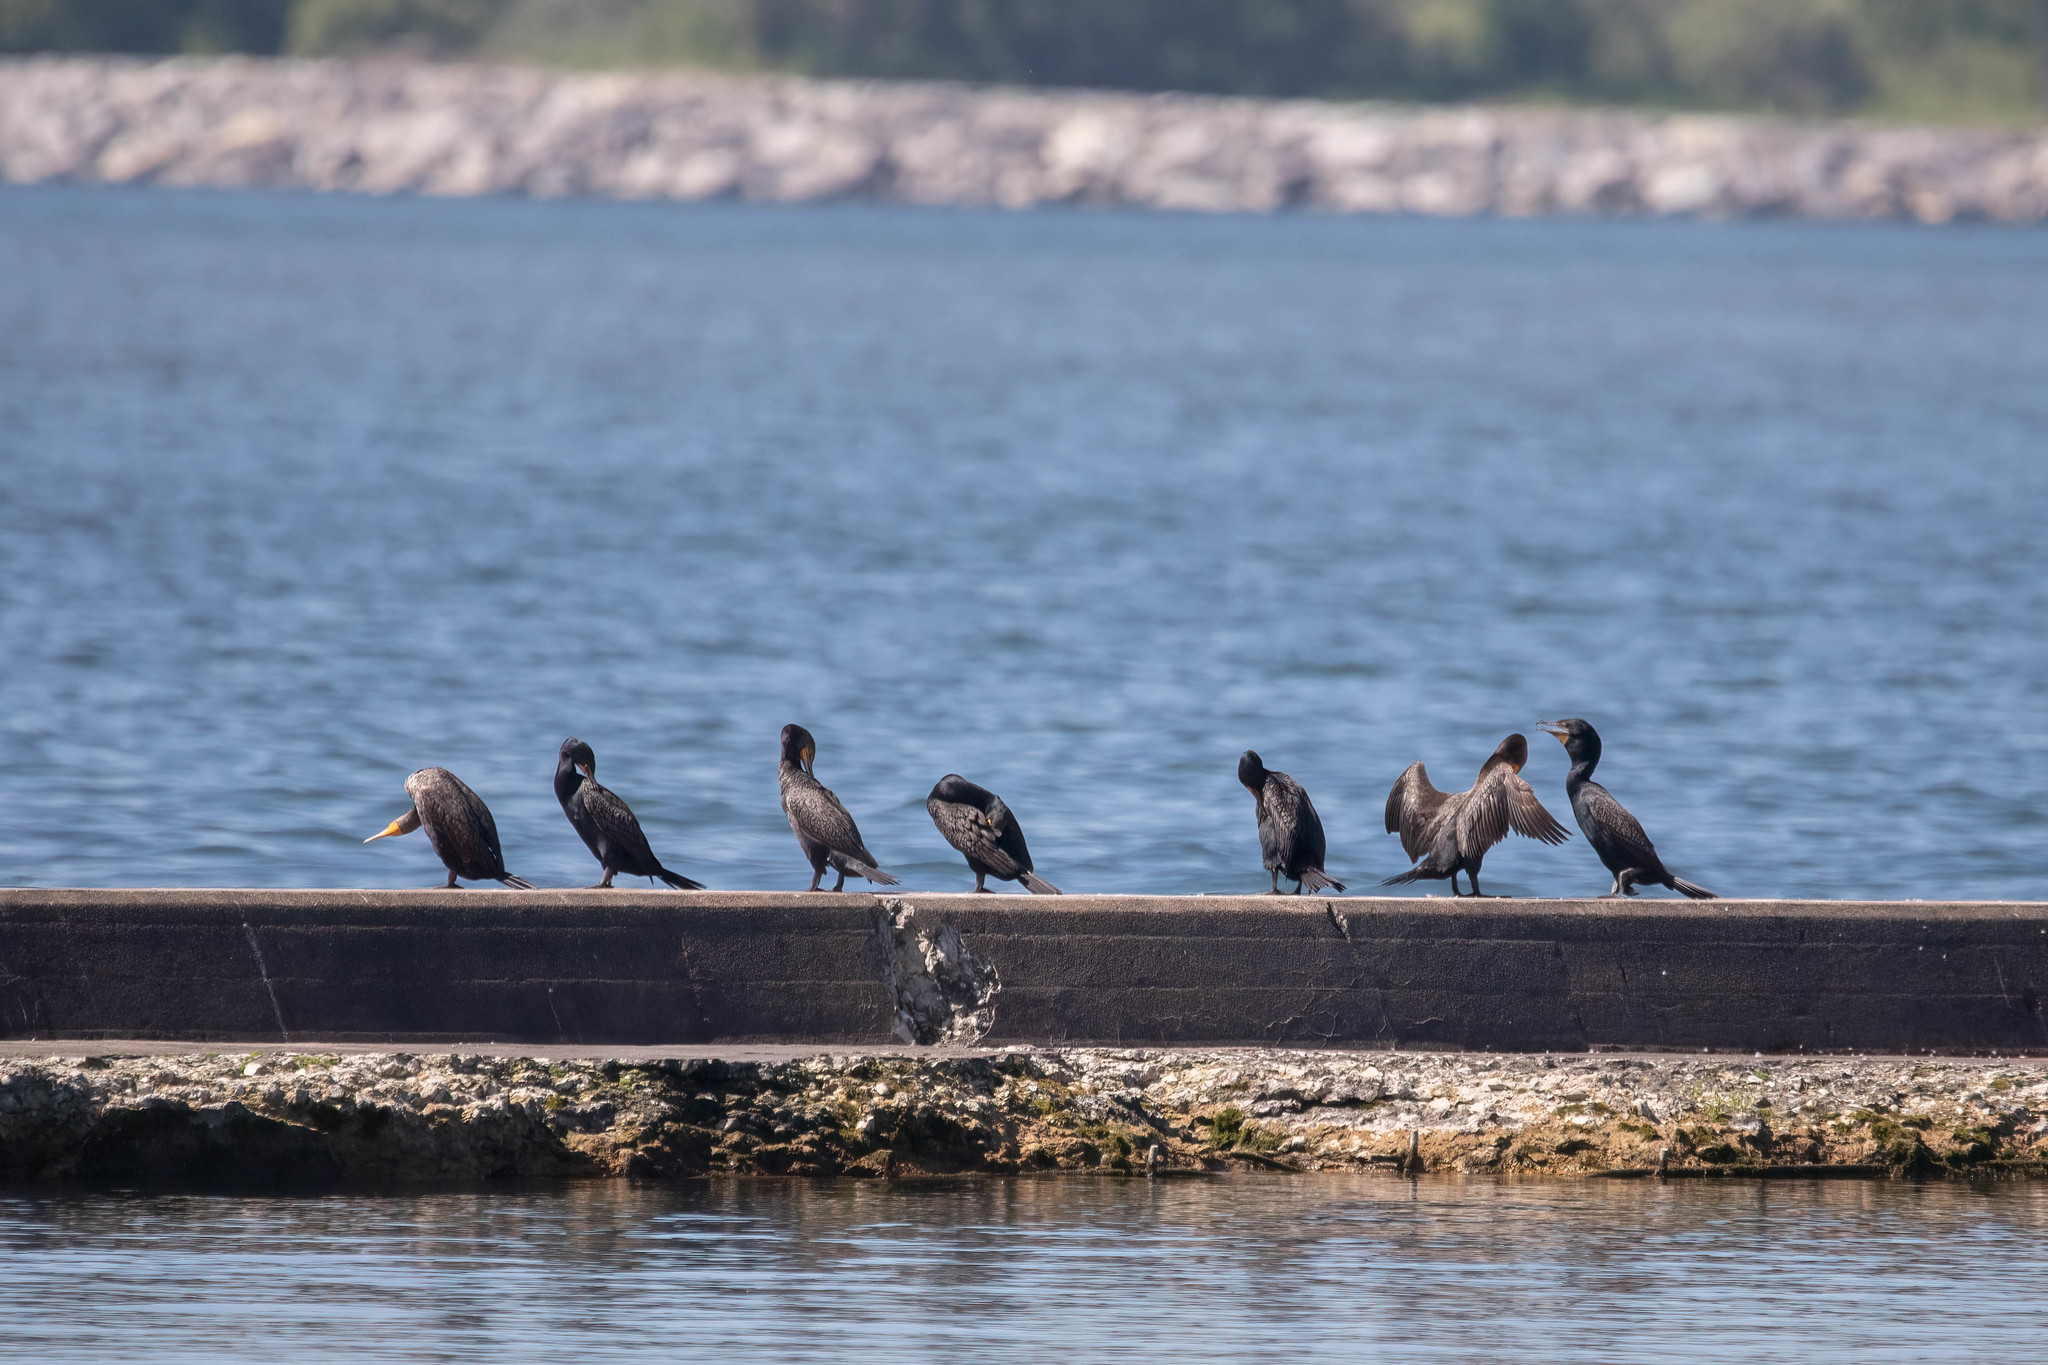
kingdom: Animalia
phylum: Chordata
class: Aves
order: Suliformes
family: Phalacrocoracidae
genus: Phalacrocorax
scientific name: Phalacrocorax auritus
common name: Double-crested cormorant
